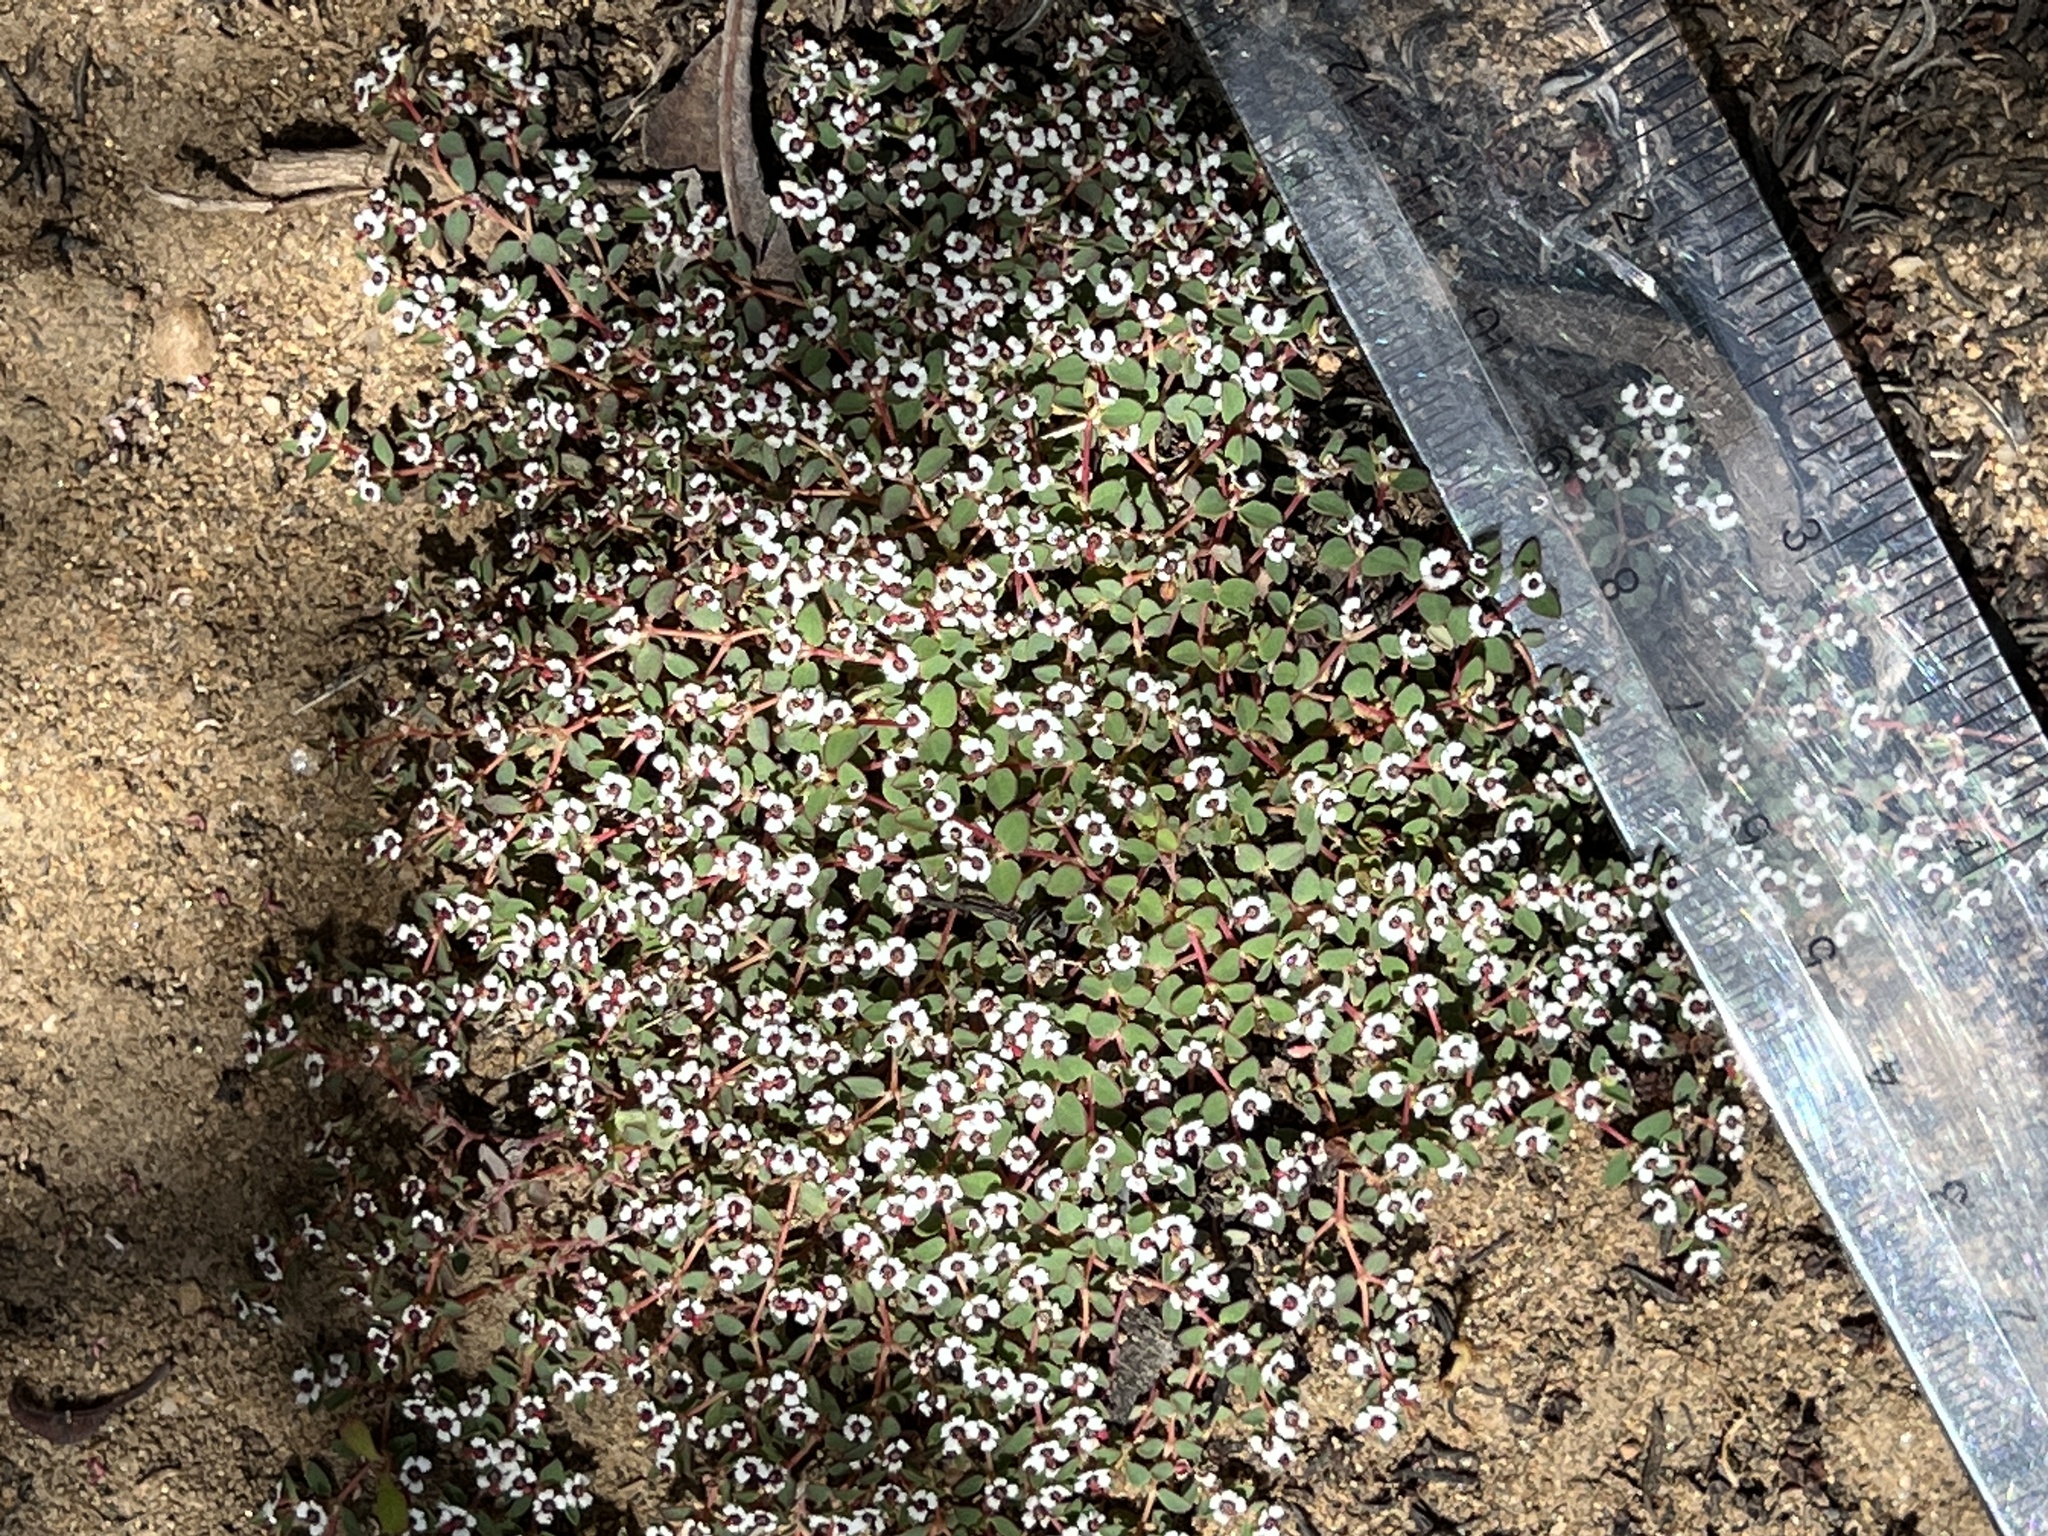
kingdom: Plantae
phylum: Tracheophyta
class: Magnoliopsida
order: Malpighiales
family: Euphorbiaceae
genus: Euphorbia
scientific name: Euphorbia polycarpa
